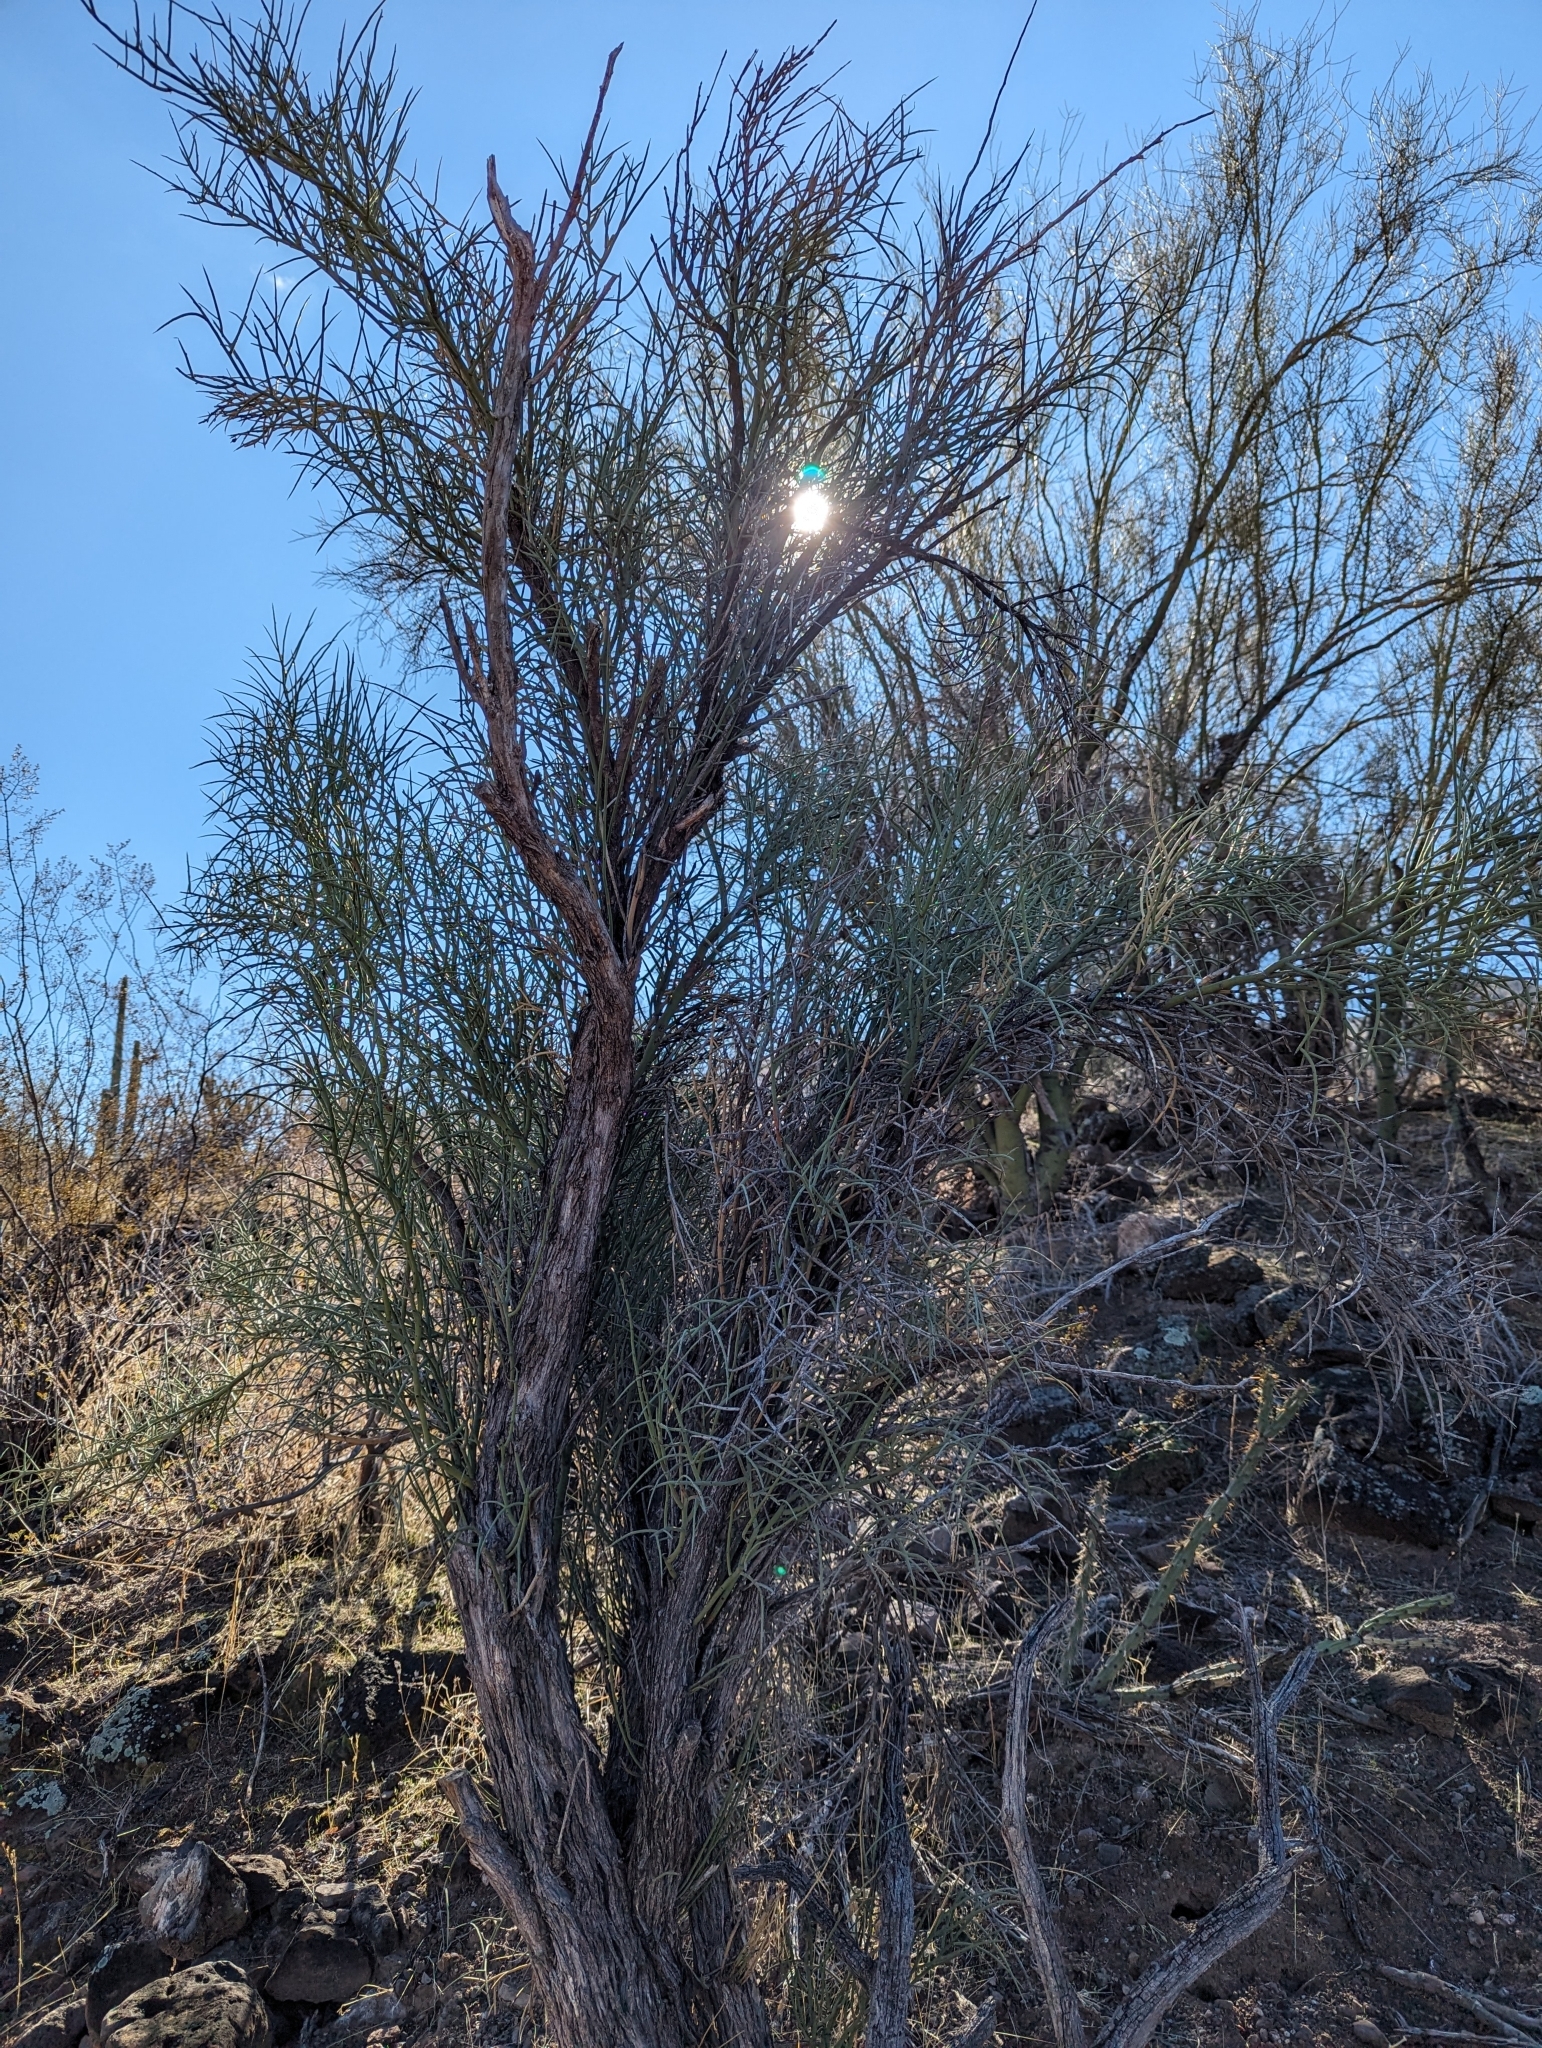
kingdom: Plantae
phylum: Tracheophyta
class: Magnoliopsida
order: Celastrales
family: Celastraceae
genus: Canotia
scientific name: Canotia holacantha
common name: Crucifixion thorns
